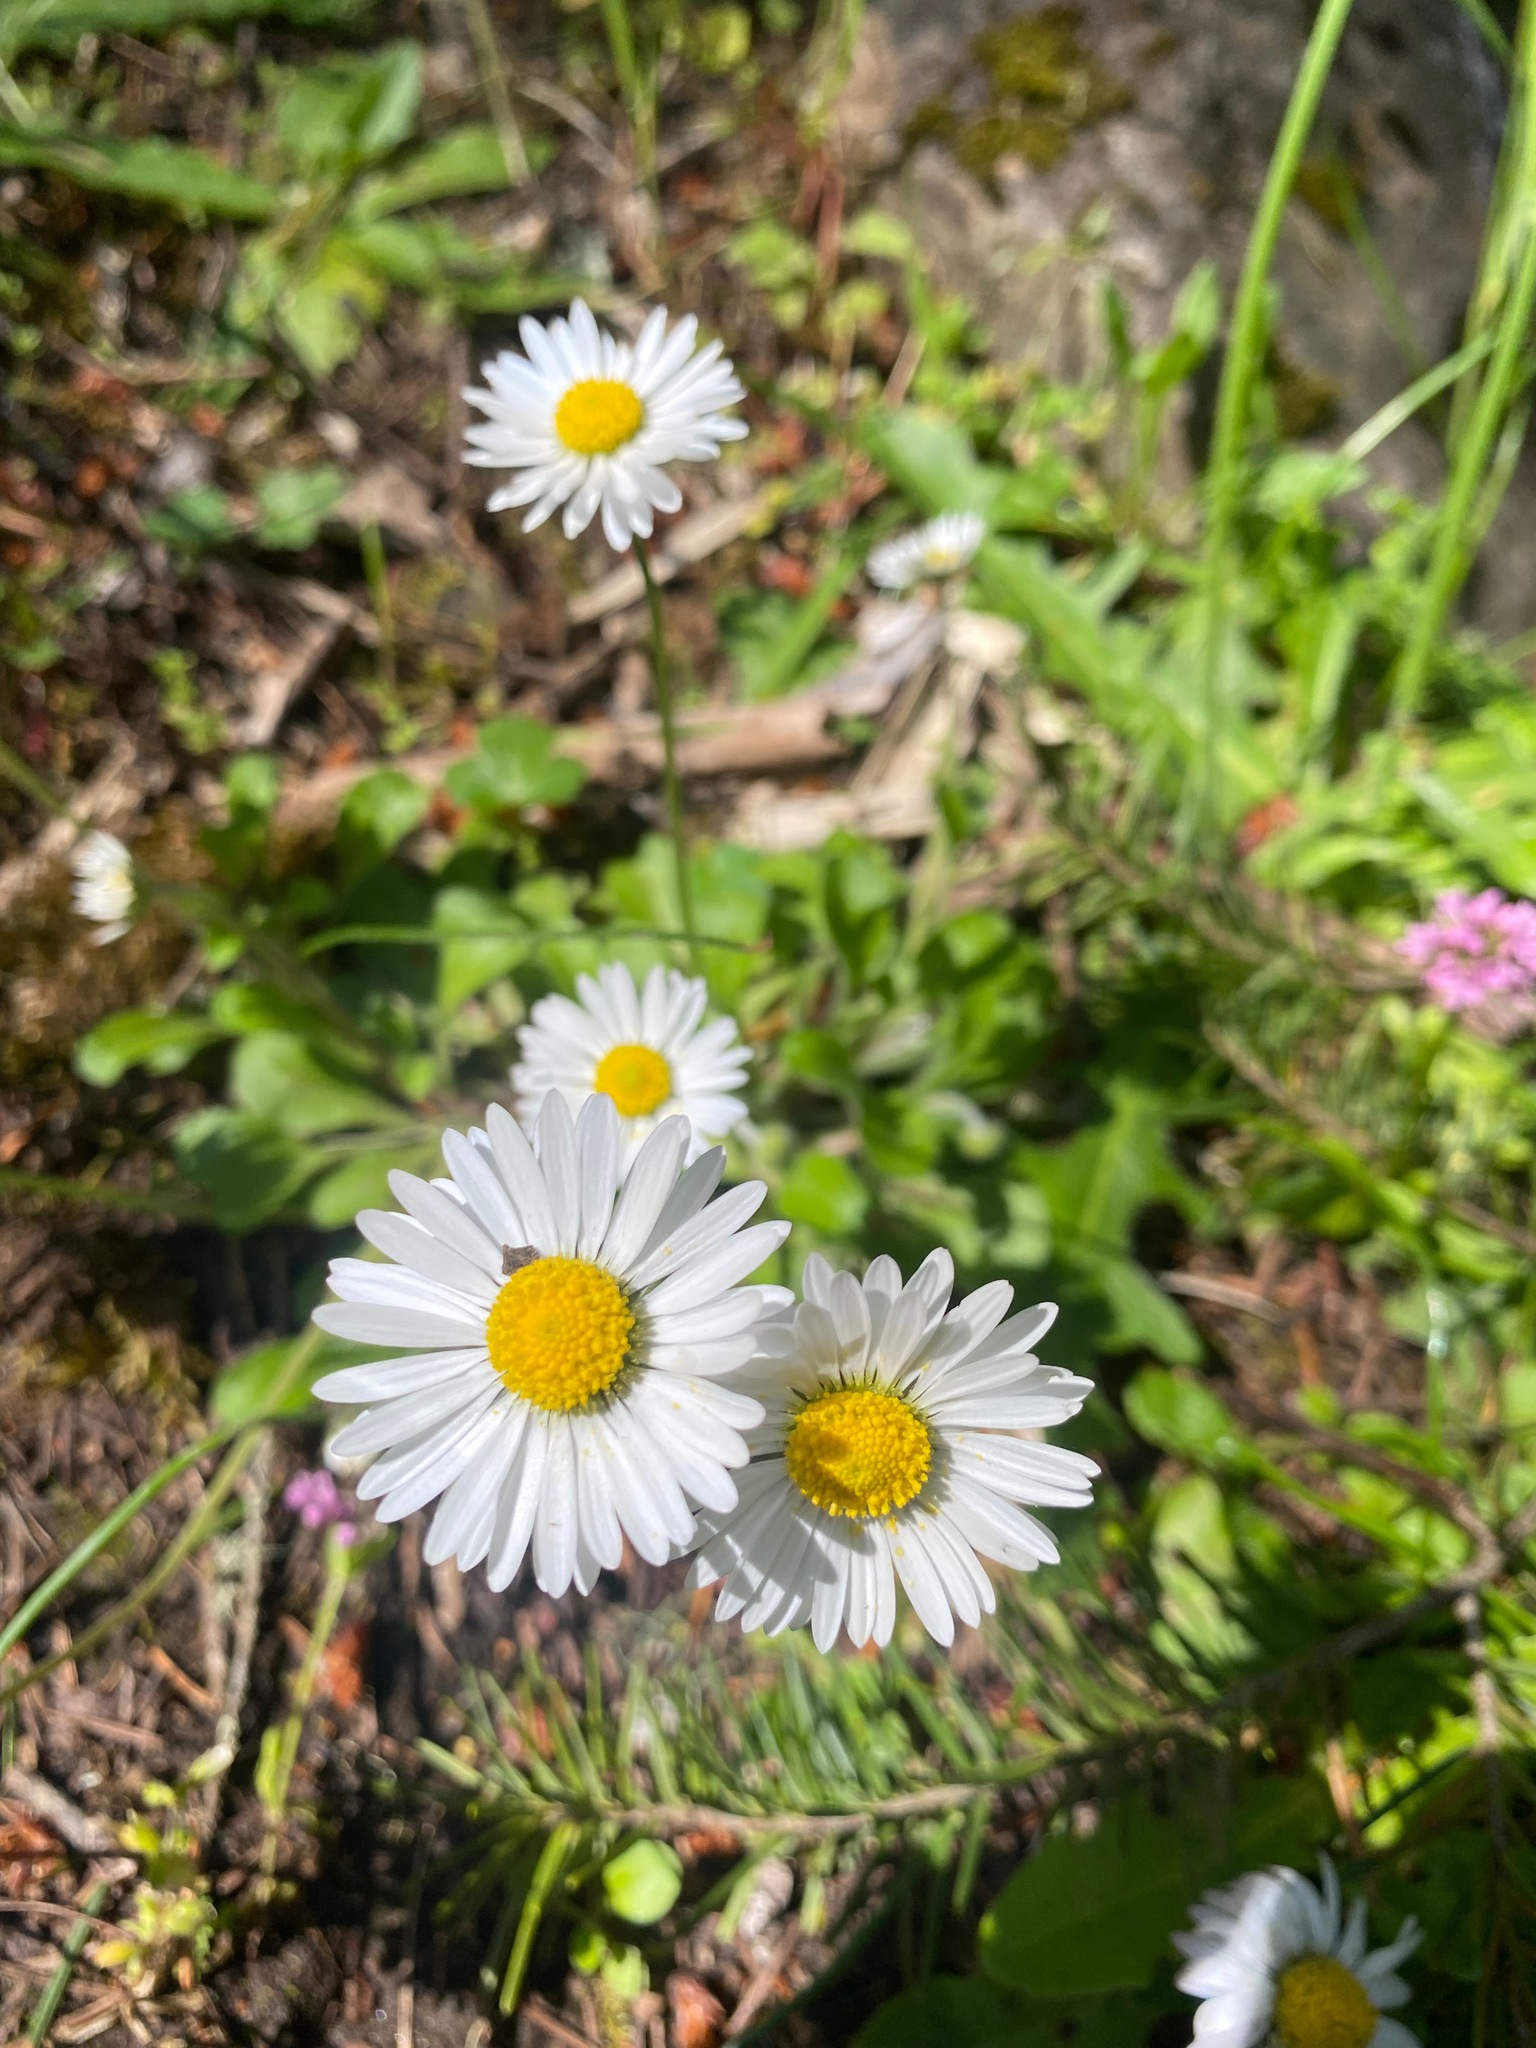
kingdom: Plantae
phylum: Tracheophyta
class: Magnoliopsida
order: Asterales
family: Asteraceae
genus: Bellis
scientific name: Bellis perennis
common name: Lawndaisy
